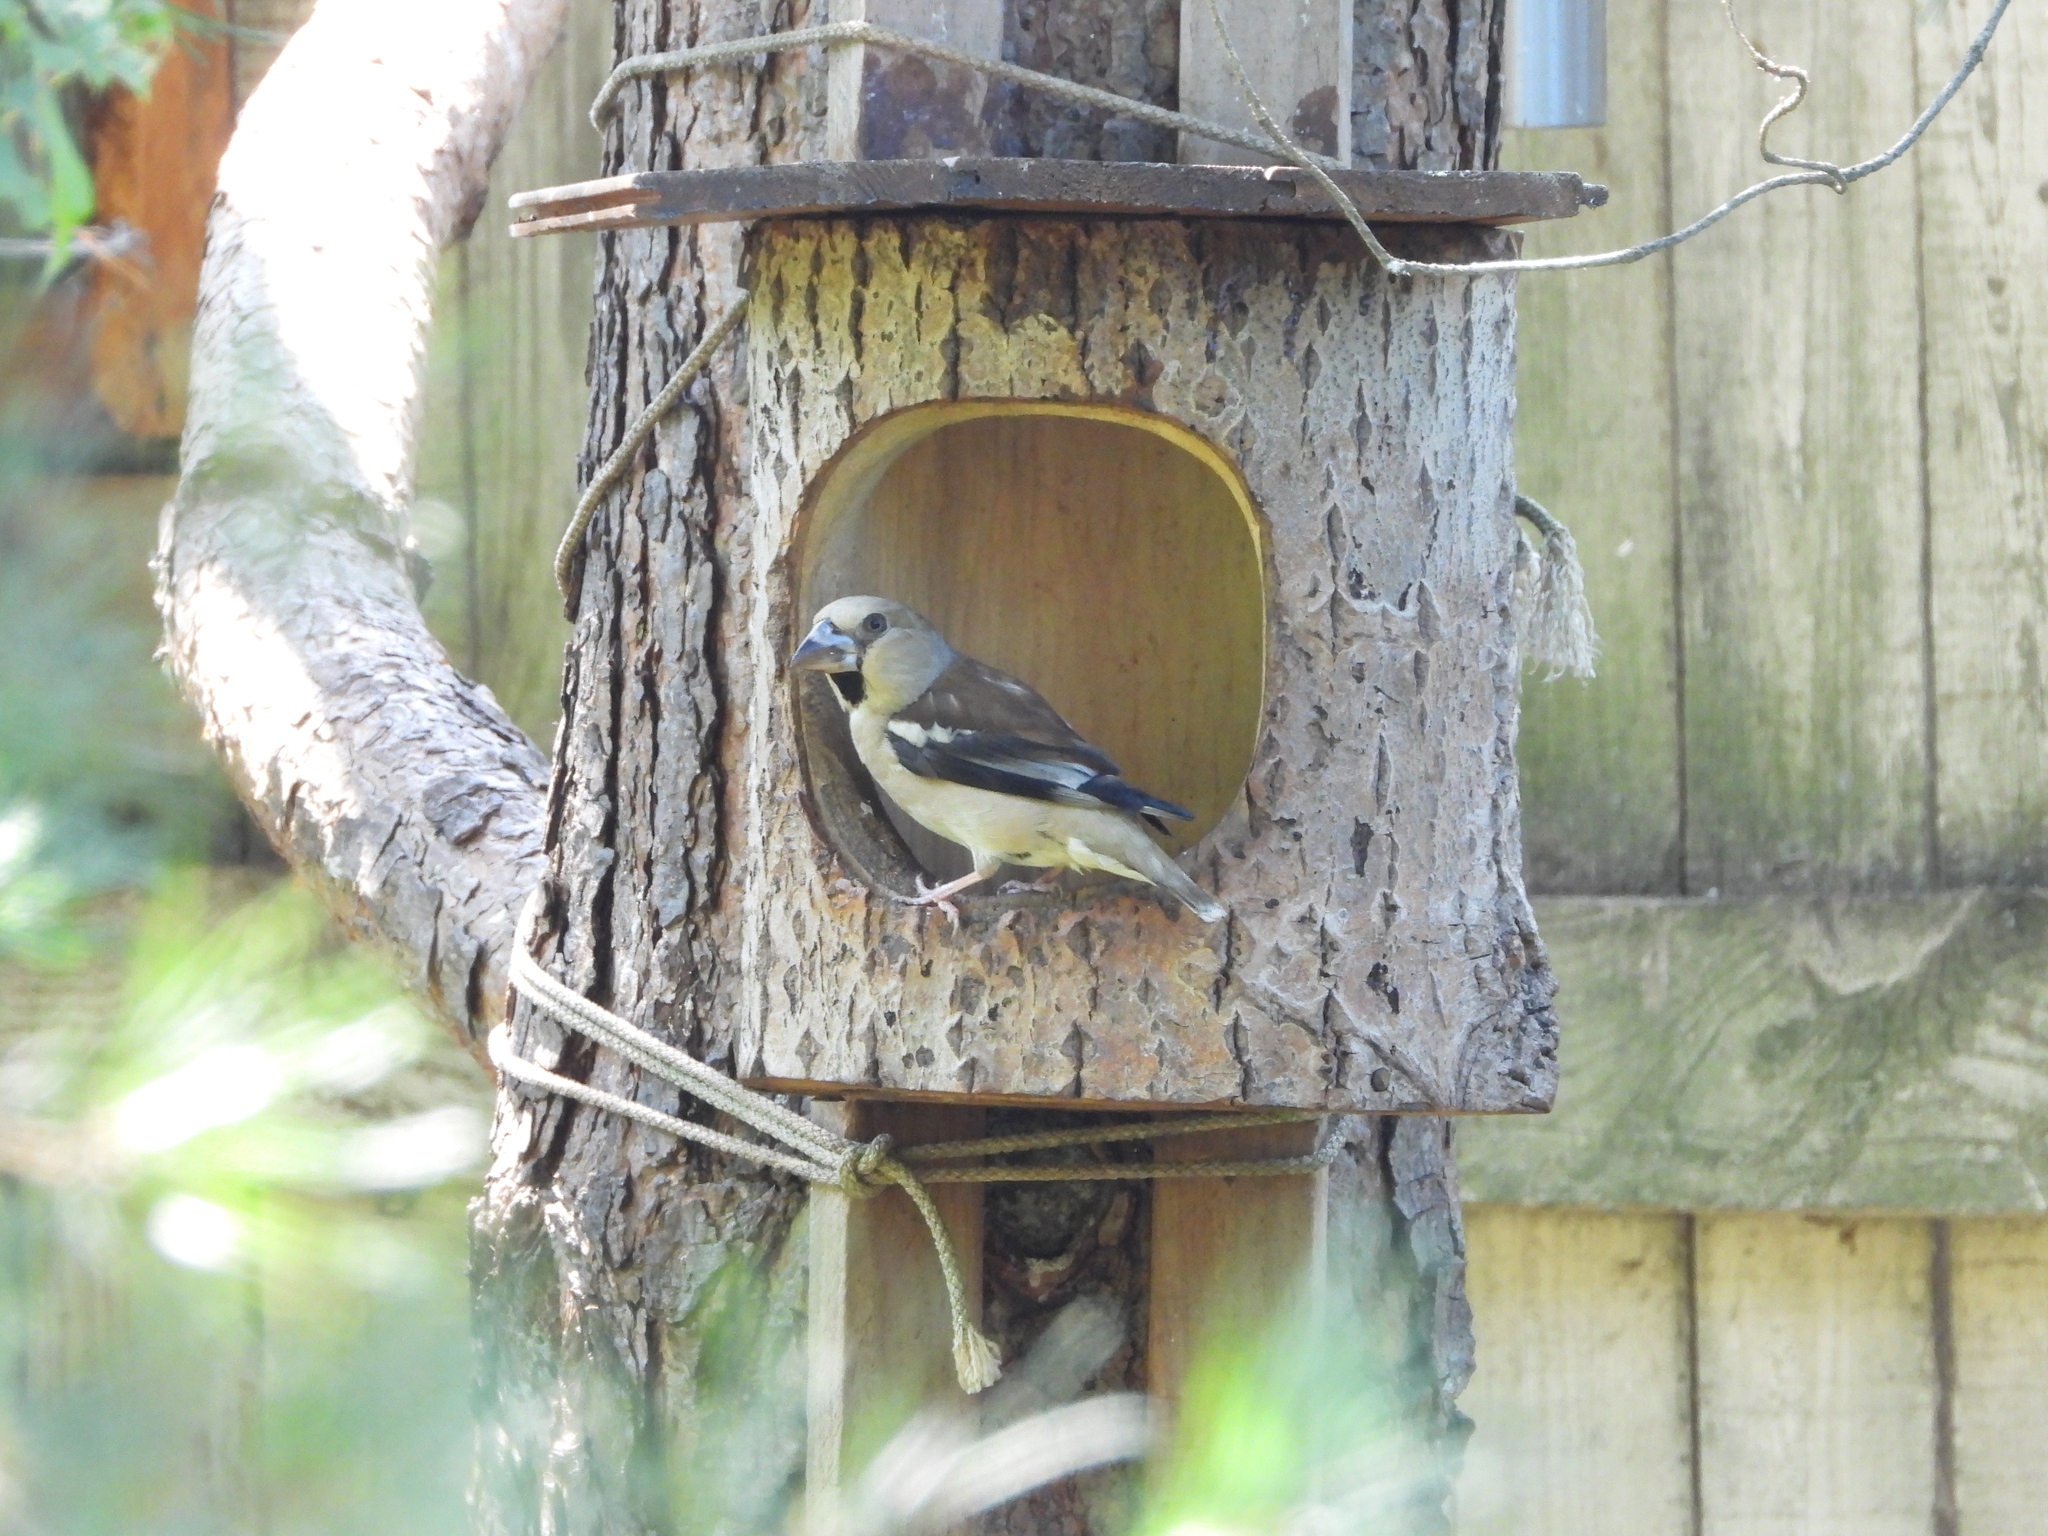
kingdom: Animalia
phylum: Chordata
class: Aves
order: Passeriformes
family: Fringillidae
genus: Coccothraustes
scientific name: Coccothraustes coccothraustes
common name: Hawfinch
